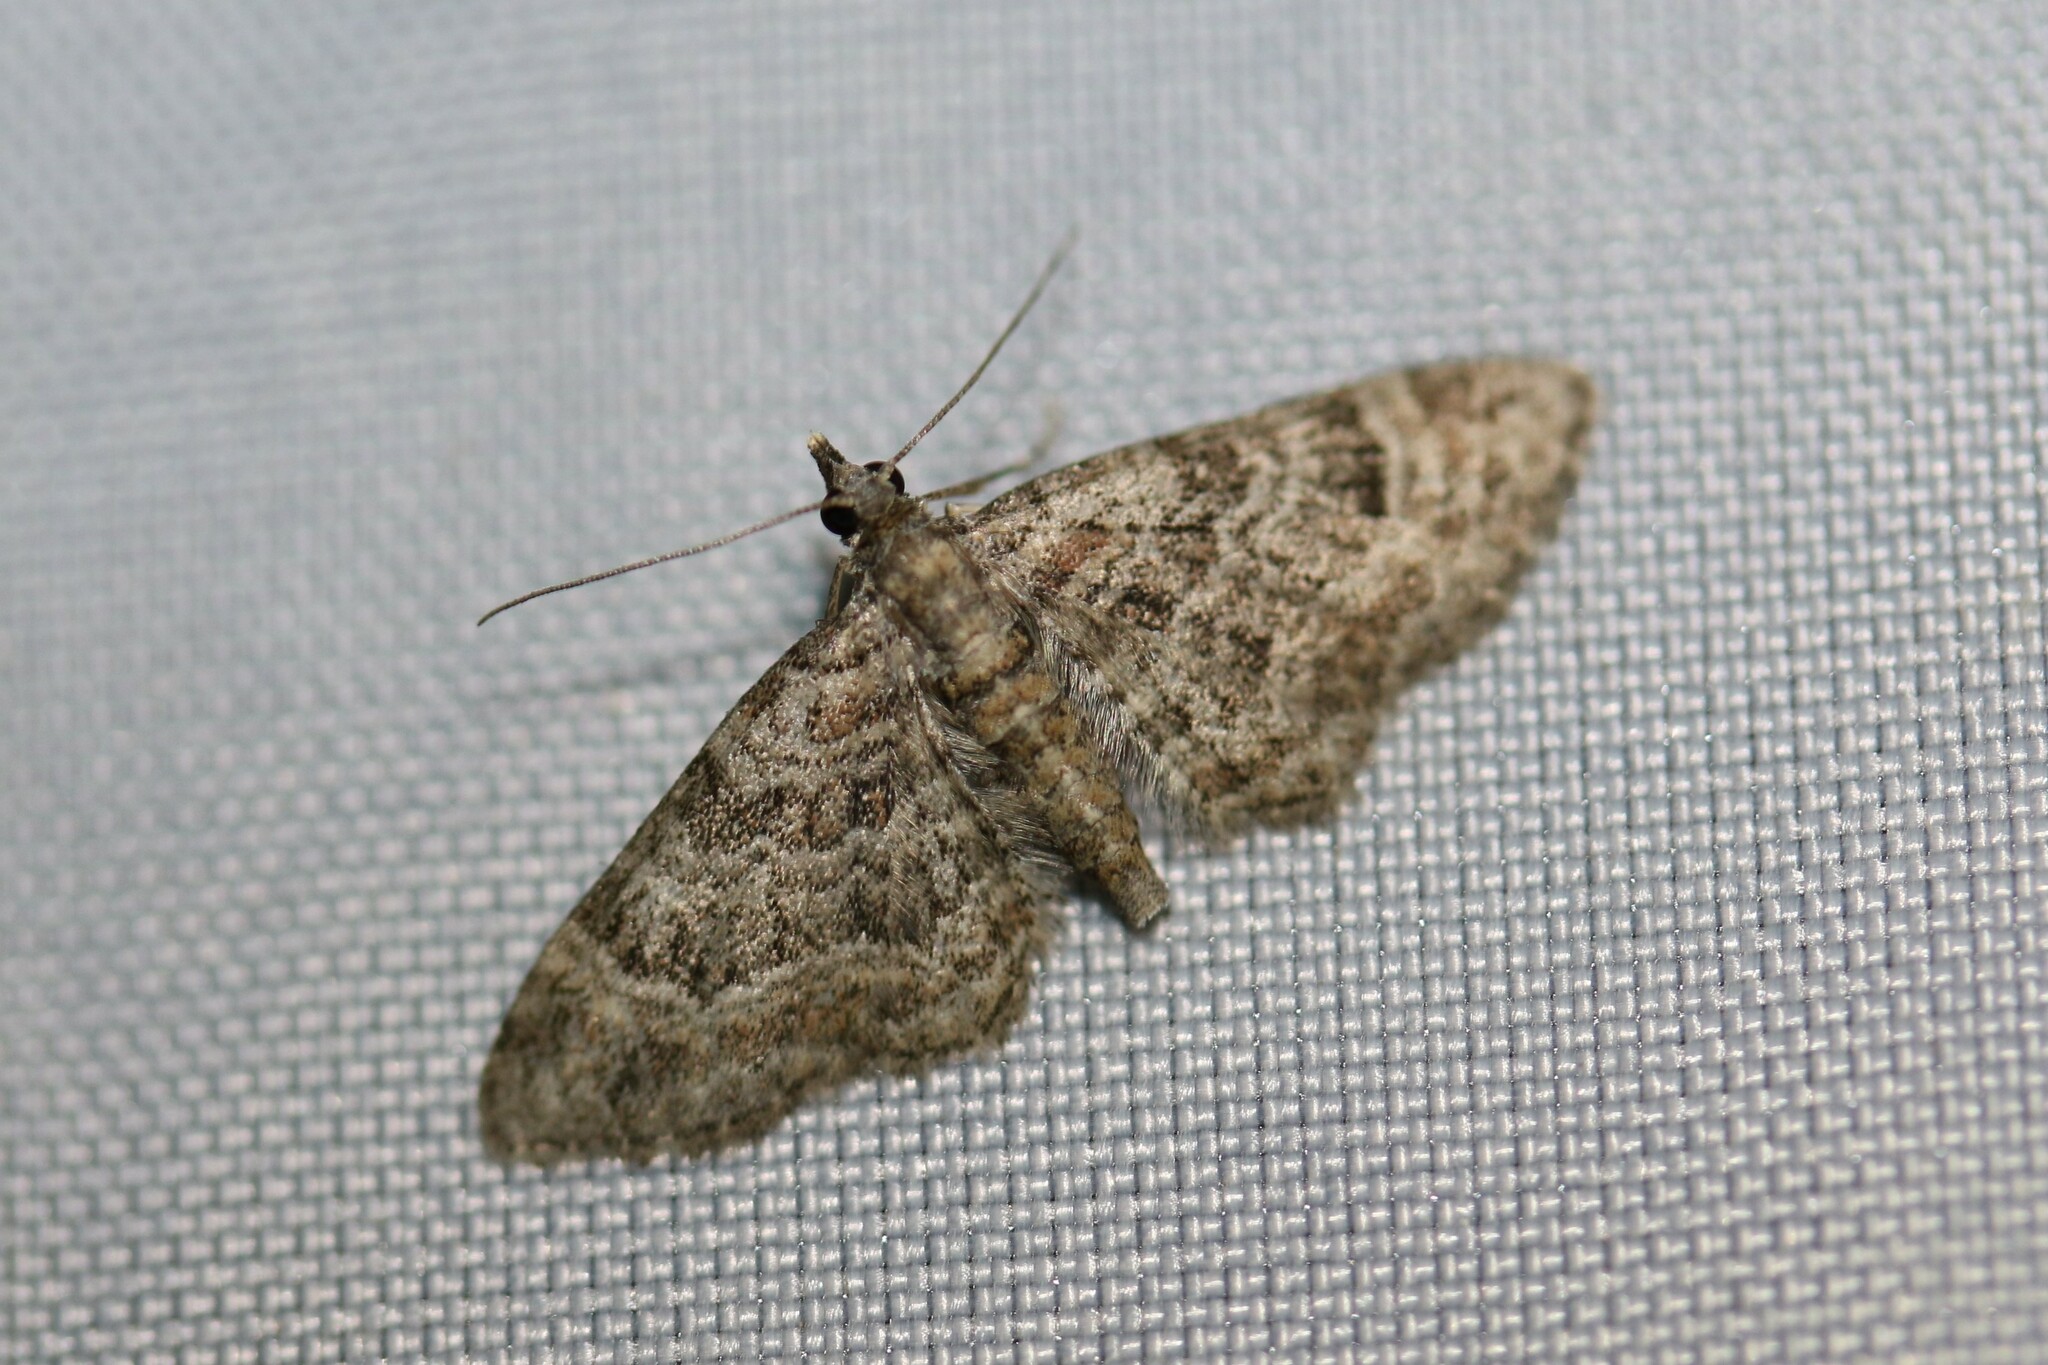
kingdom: Animalia
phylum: Arthropoda
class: Insecta
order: Lepidoptera
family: Geometridae
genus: Gymnoscelis
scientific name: Gymnoscelis rufifasciata
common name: Double-striped pug
